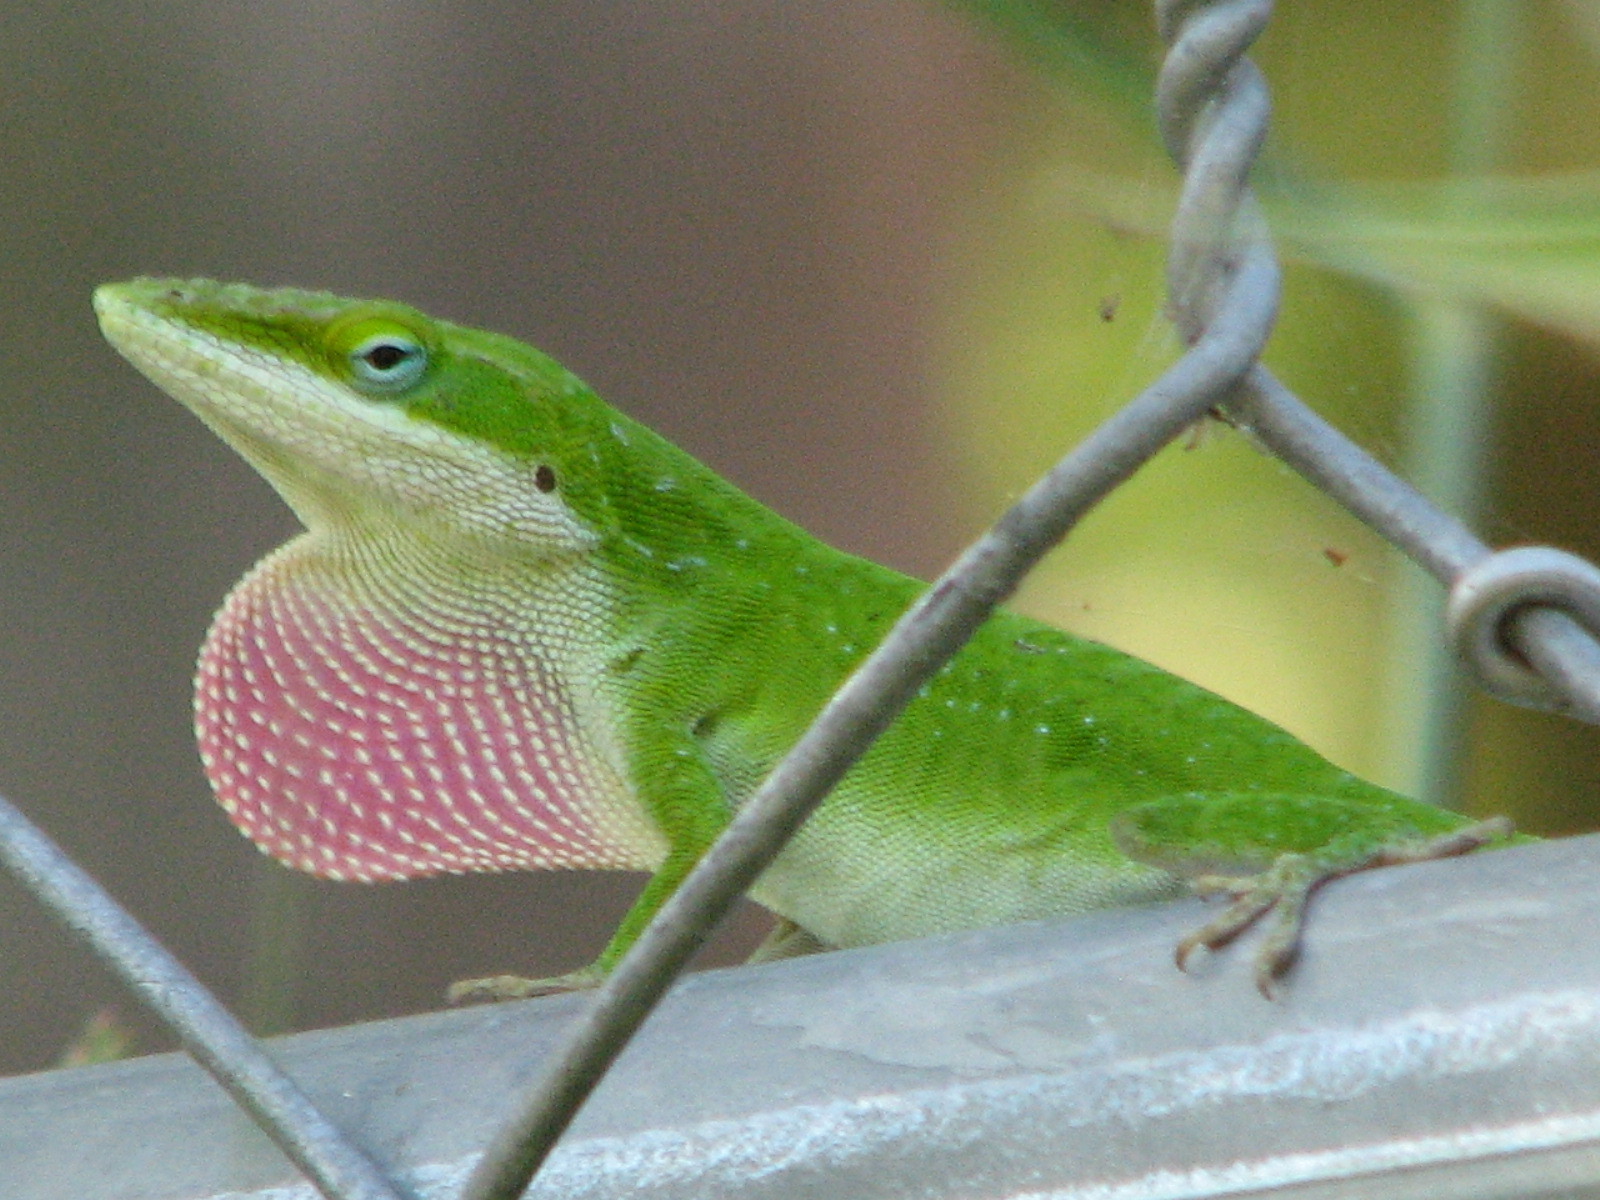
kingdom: Animalia
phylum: Chordata
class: Squamata
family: Dactyloidae
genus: Anolis
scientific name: Anolis carolinensis
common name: Green anole
